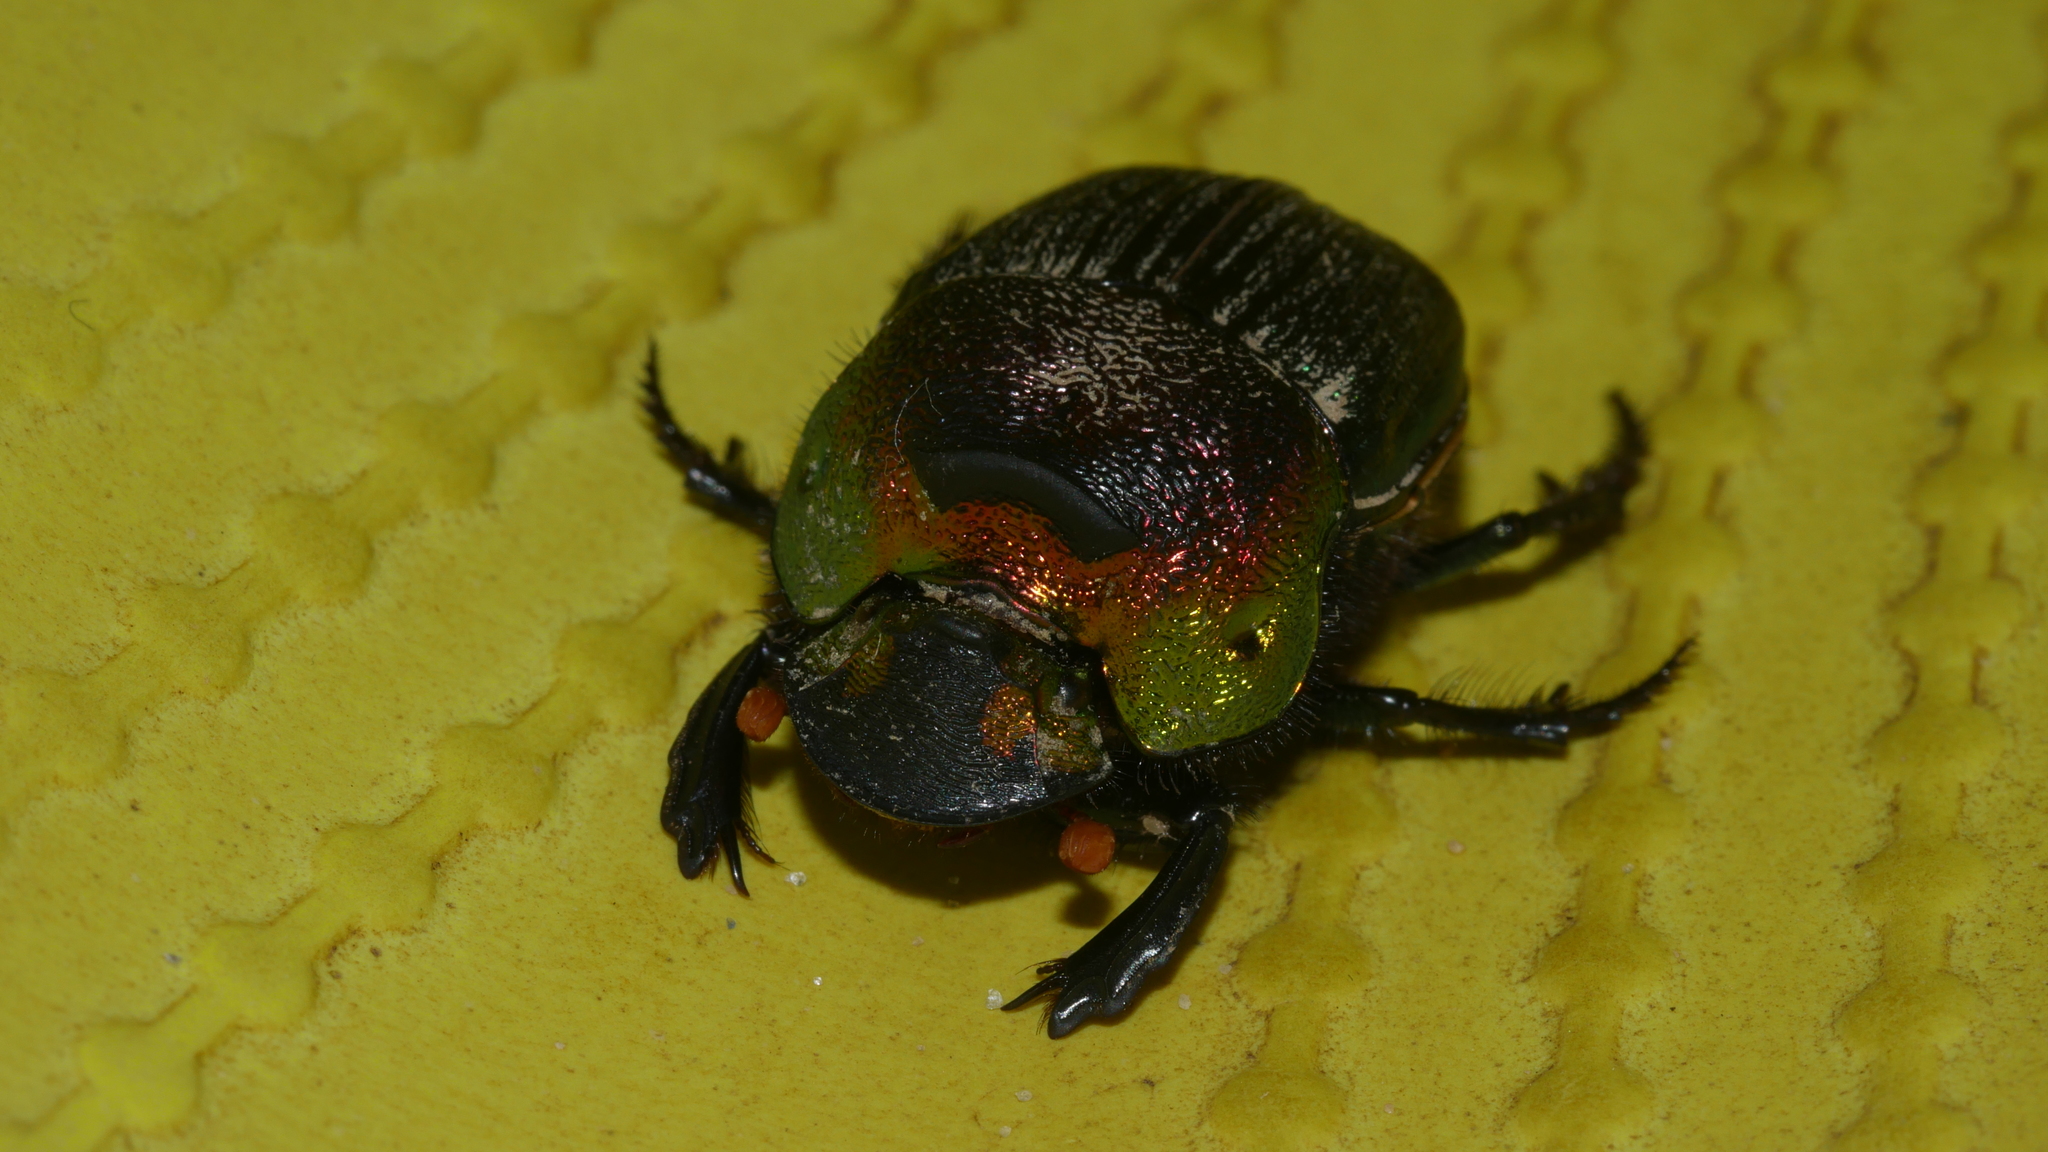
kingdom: Animalia
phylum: Arthropoda
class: Insecta
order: Coleoptera
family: Scarabaeidae
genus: Phanaeus
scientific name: Phanaeus vindex
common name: Rainbow scarab
